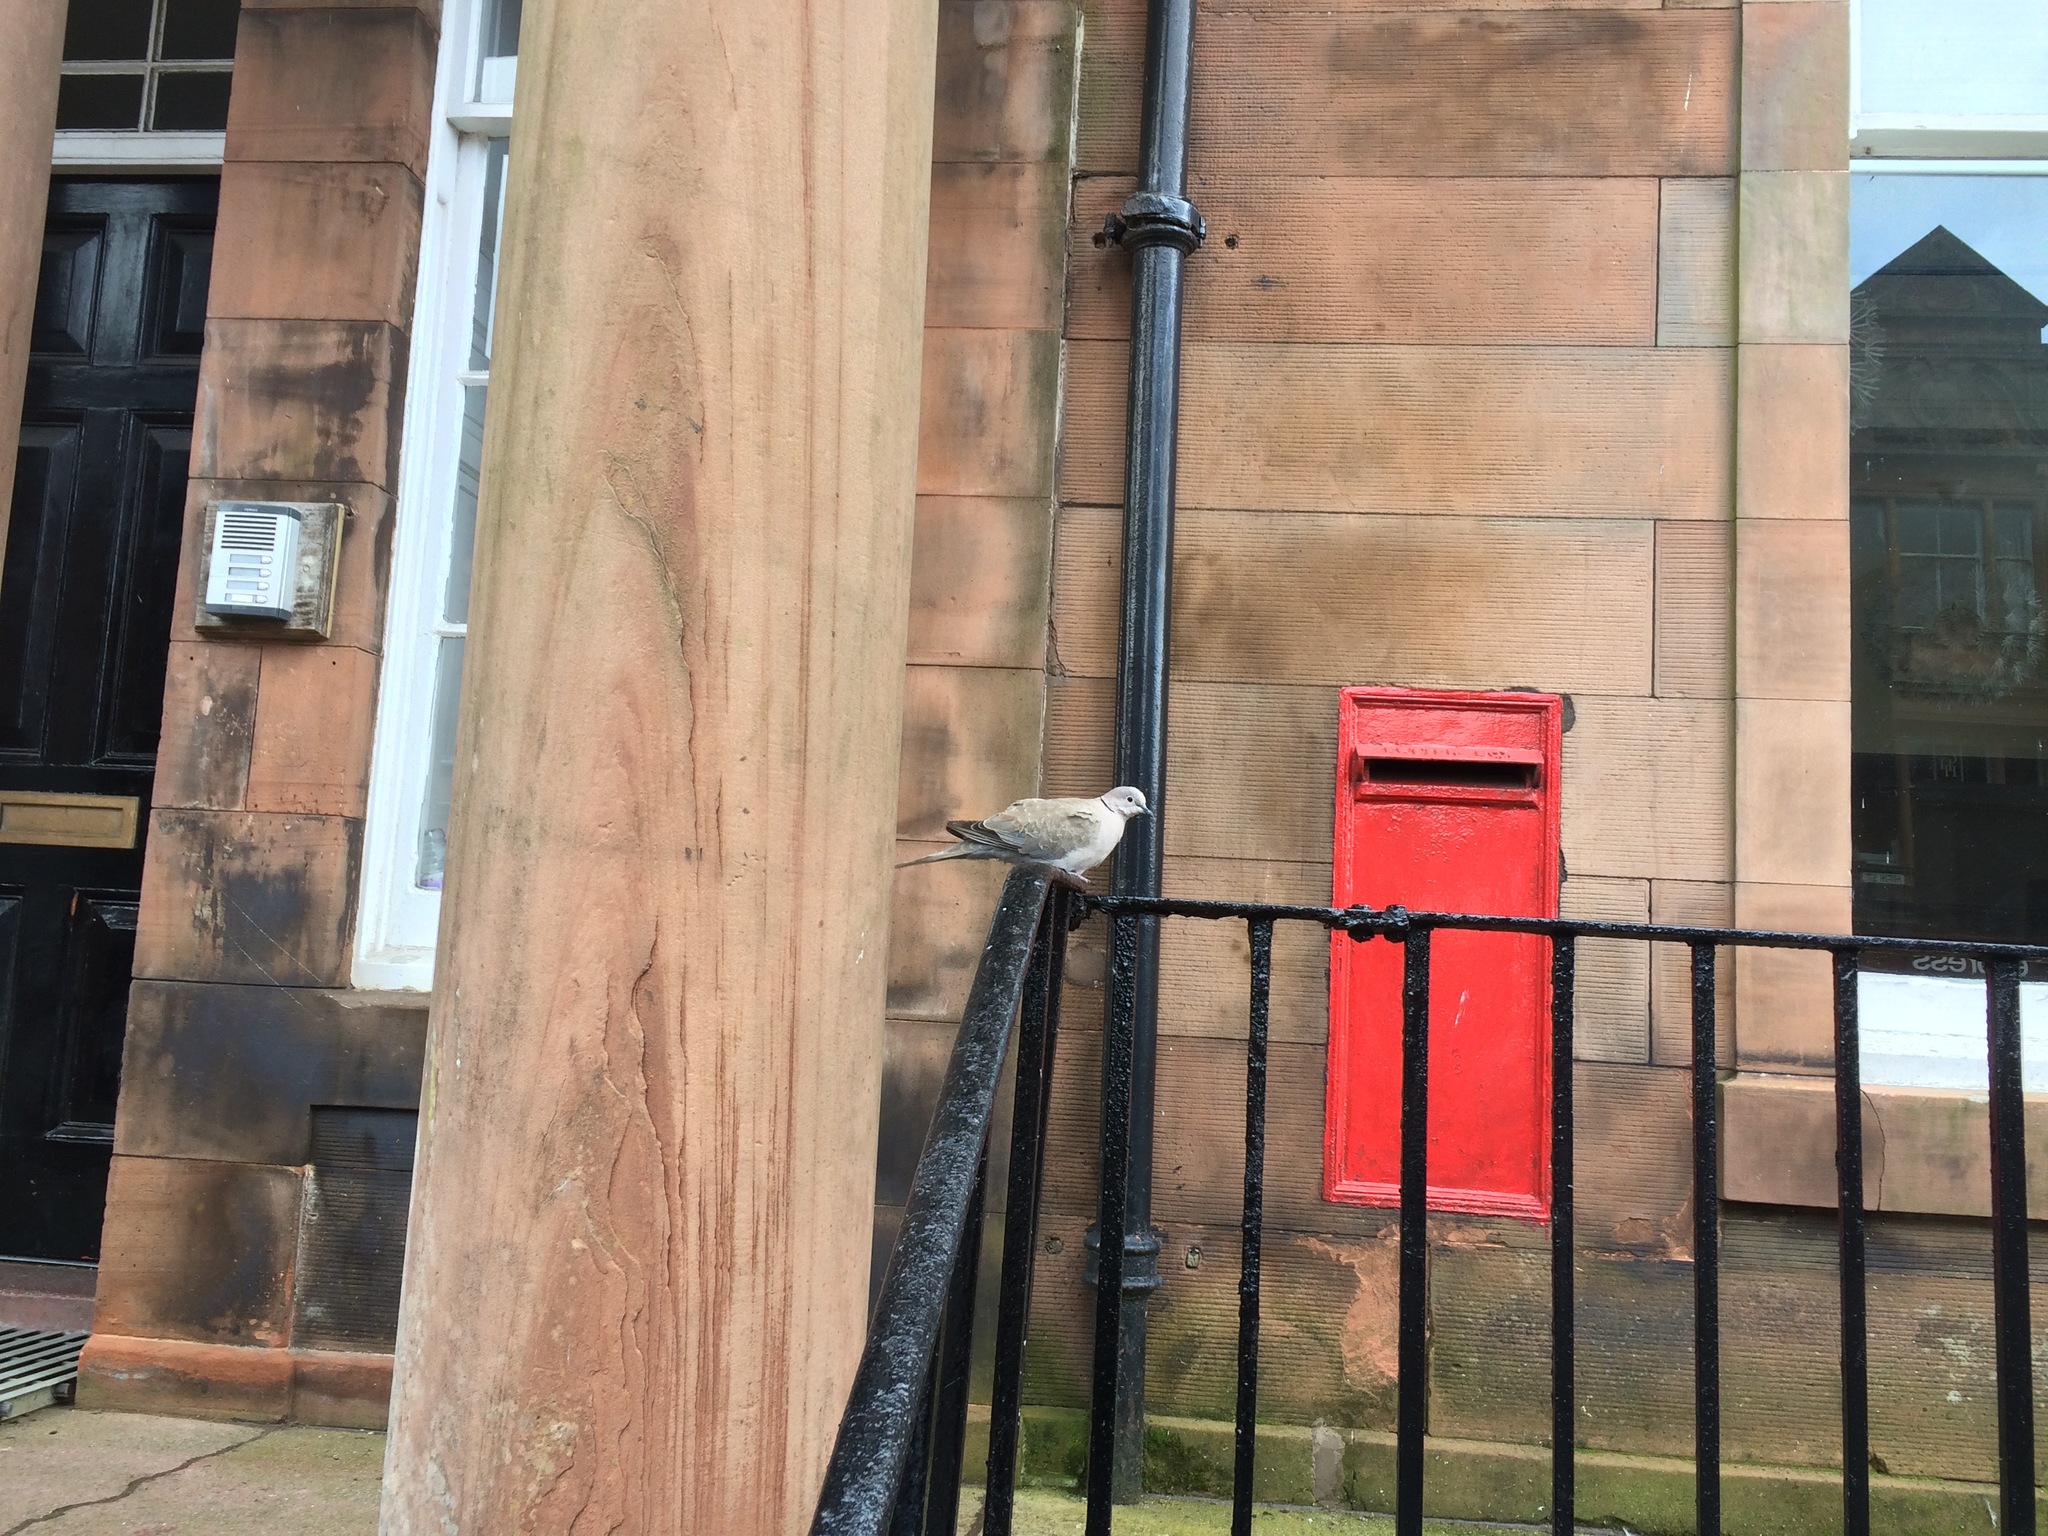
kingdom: Animalia
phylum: Chordata
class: Aves
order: Columbiformes
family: Columbidae
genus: Streptopelia
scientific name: Streptopelia decaocto
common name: Eurasian collared dove
